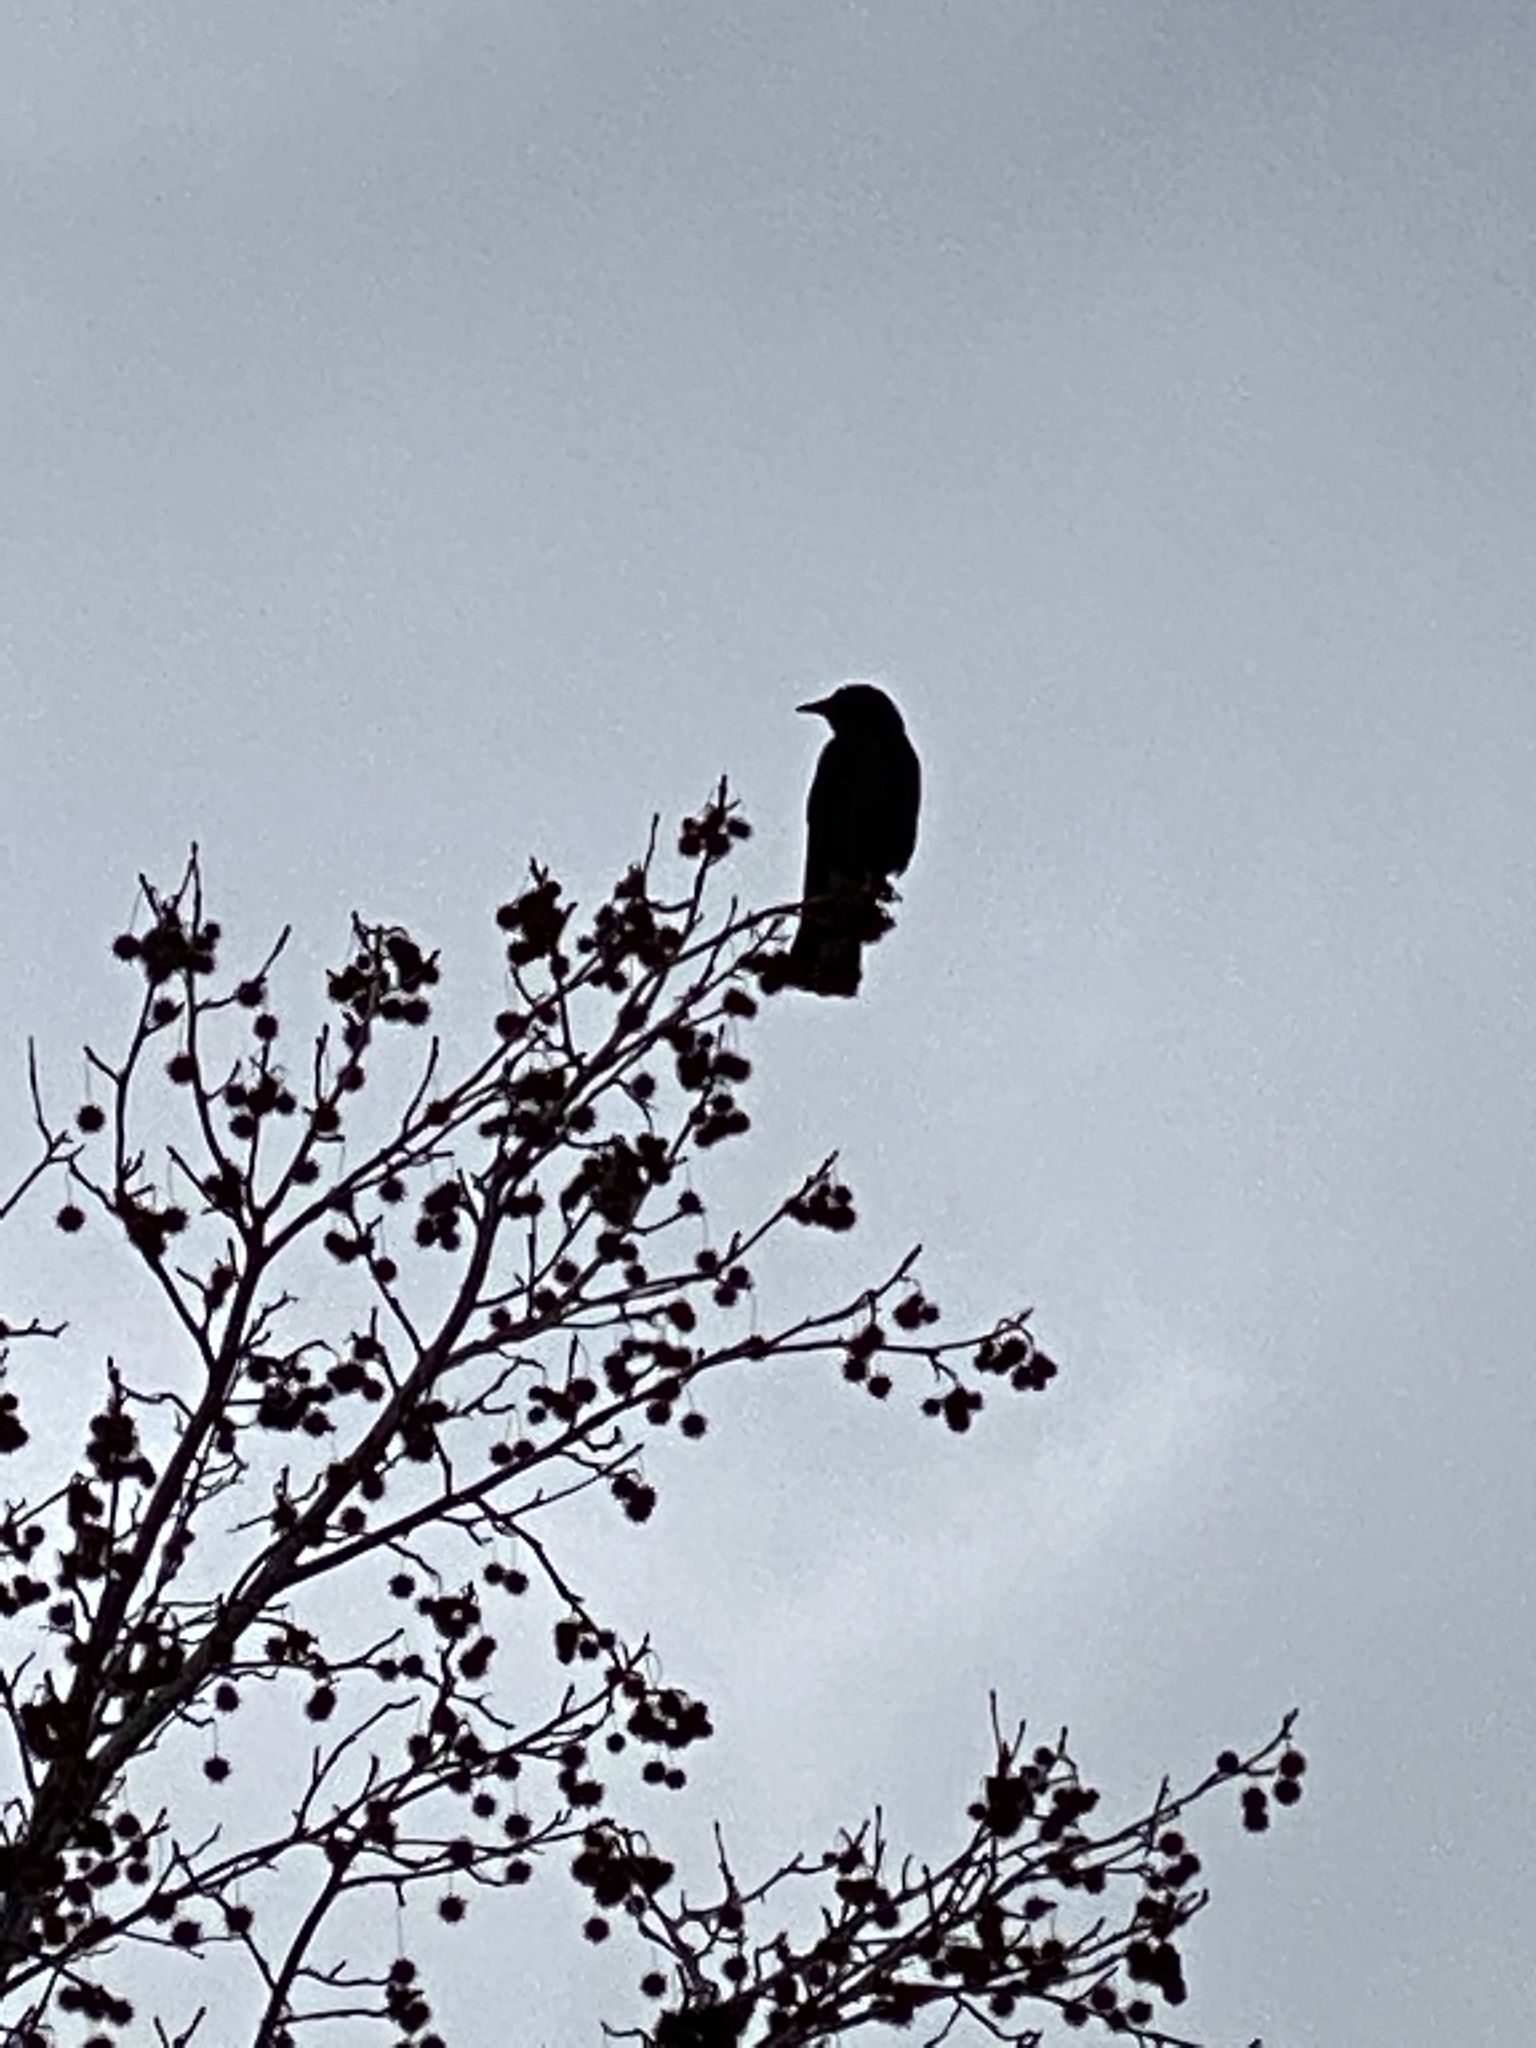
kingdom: Animalia
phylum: Chordata
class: Aves
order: Passeriformes
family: Corvidae
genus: Corvus
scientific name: Corvus brachyrhynchos
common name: American crow
